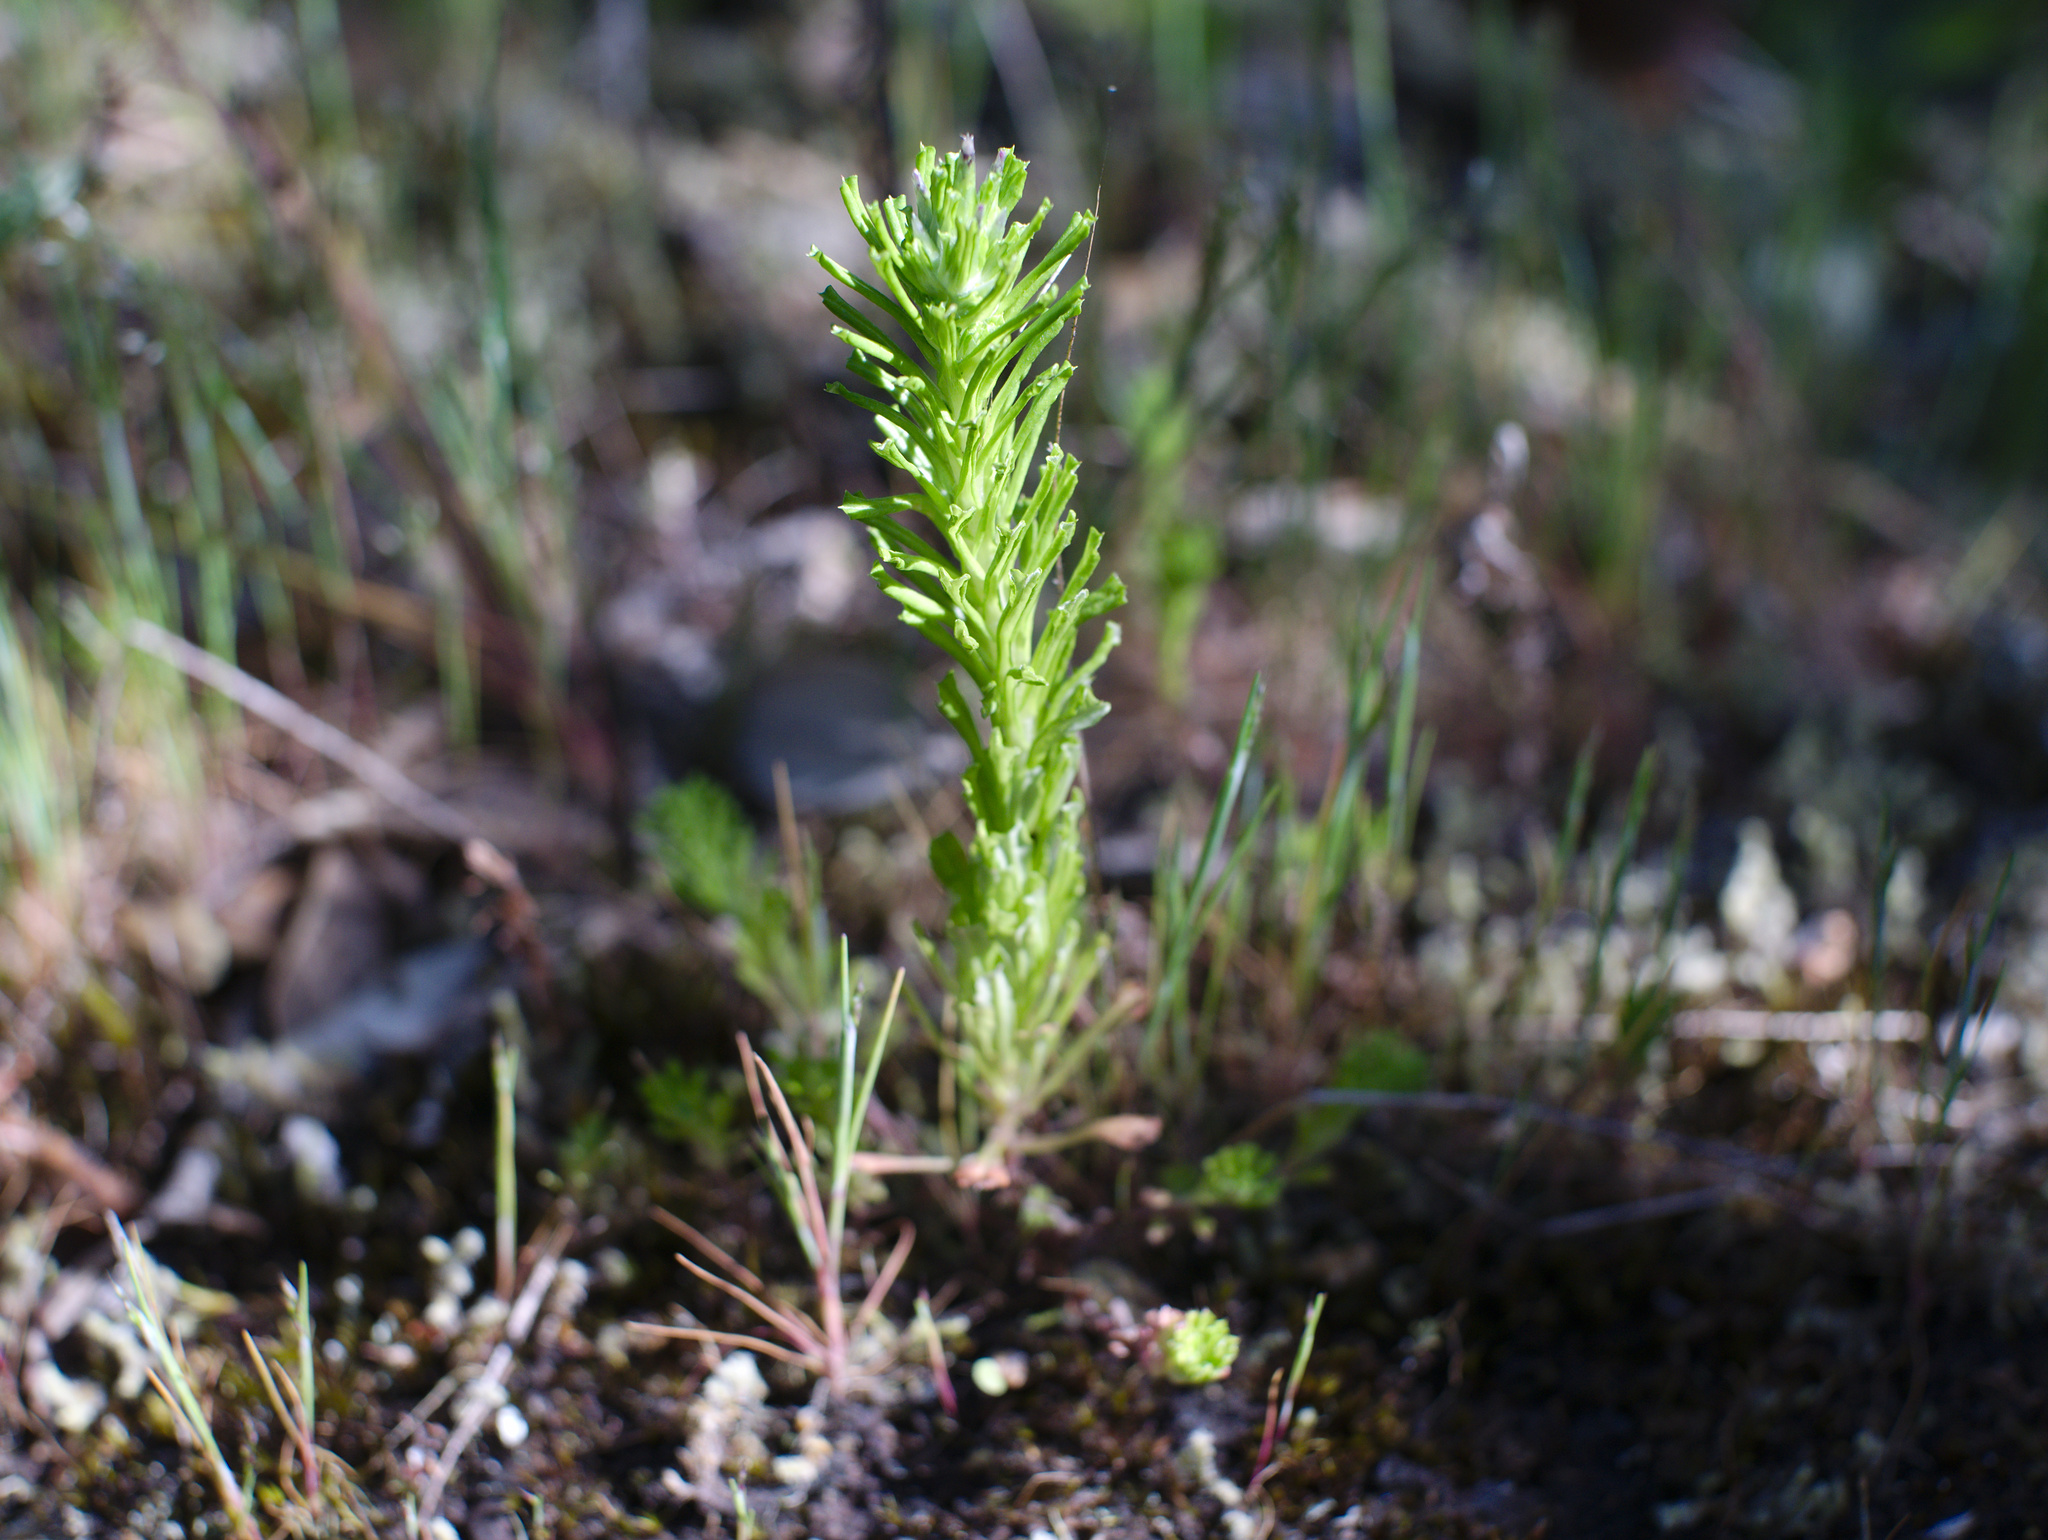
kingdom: Plantae
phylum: Tracheophyta
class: Magnoliopsida
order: Asterales
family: Asteraceae
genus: Facelis
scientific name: Facelis retusa
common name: Annual trampweed
